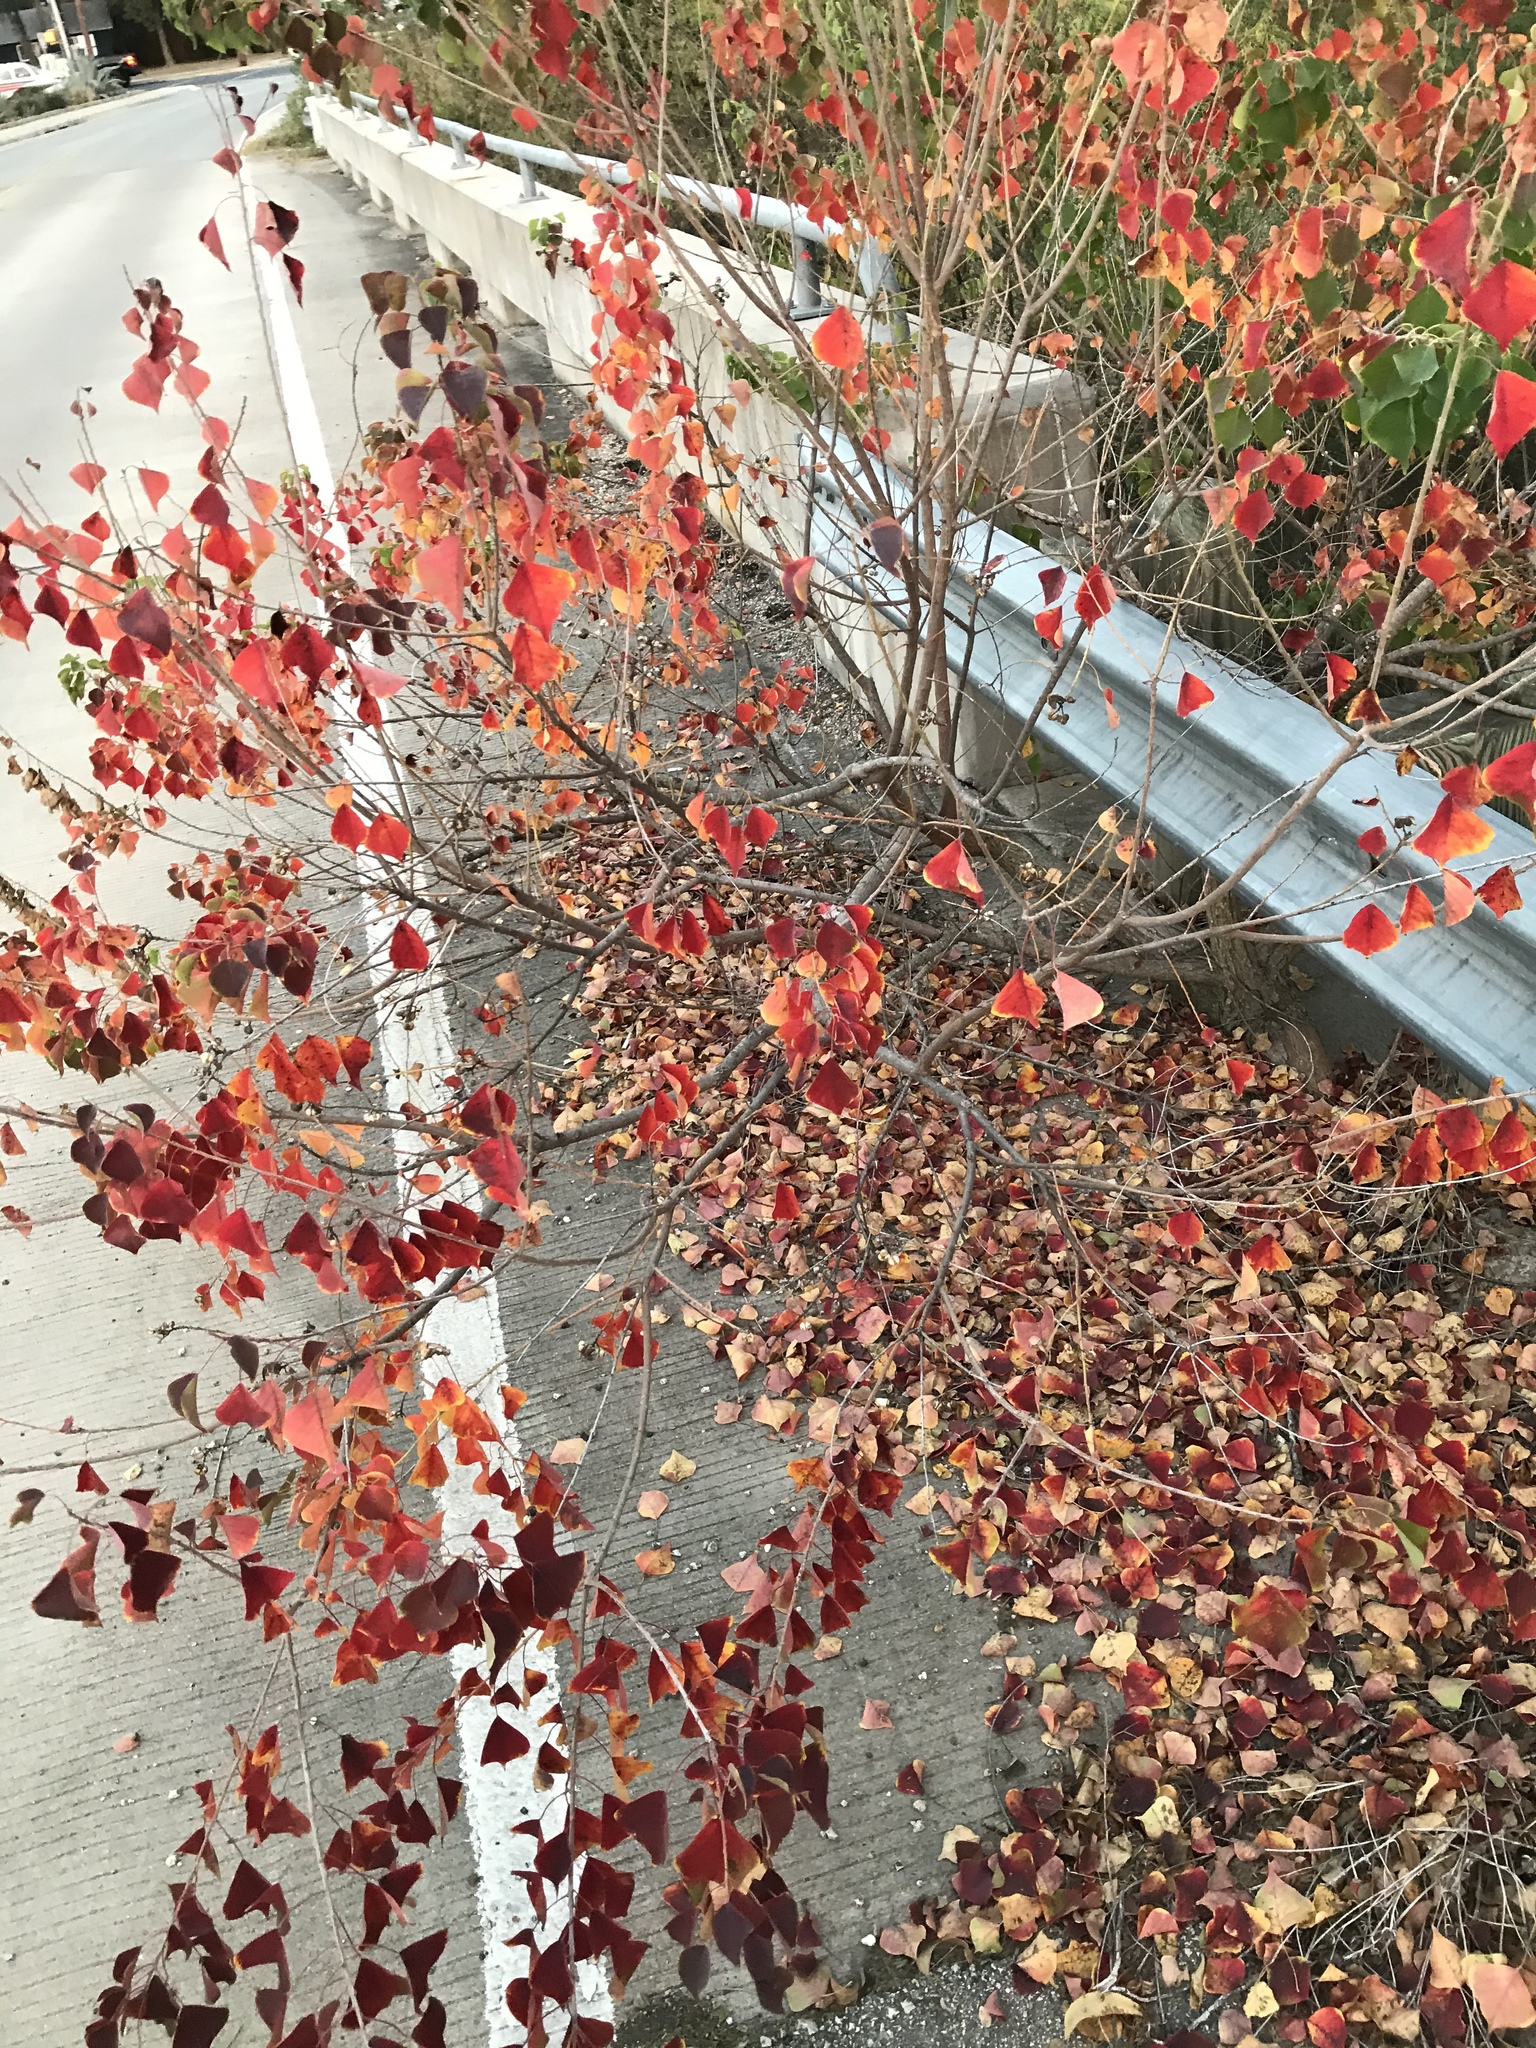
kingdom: Plantae
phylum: Tracheophyta
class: Magnoliopsida
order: Malpighiales
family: Euphorbiaceae
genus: Triadica
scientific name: Triadica sebifera
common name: Chinese tallow
